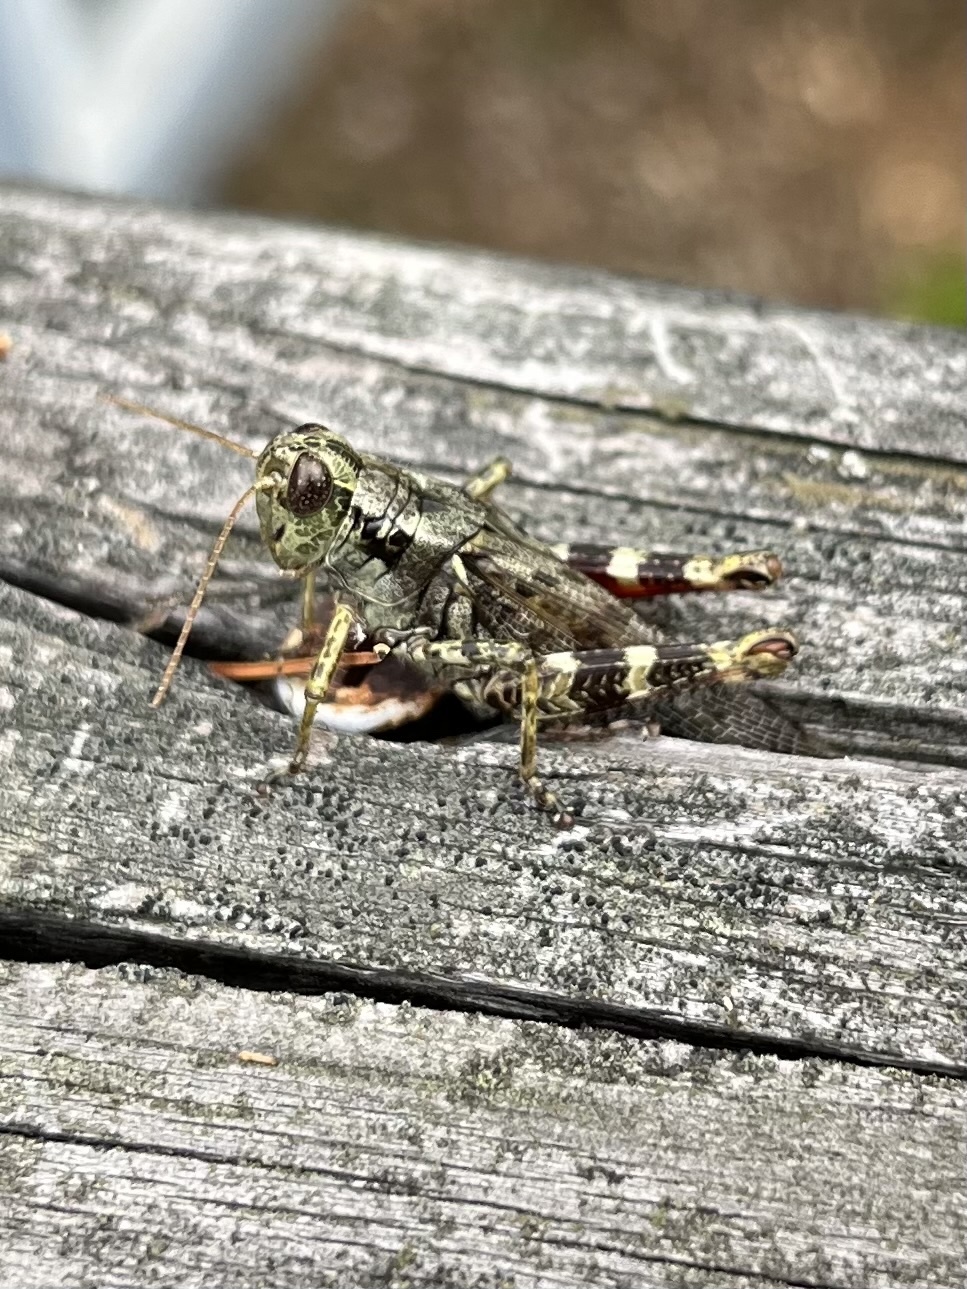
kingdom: Animalia
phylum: Arthropoda
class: Insecta
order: Orthoptera
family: Acrididae
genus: Melanoplus
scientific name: Melanoplus punctulatus
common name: Pine-tree spur-throat grasshopper
